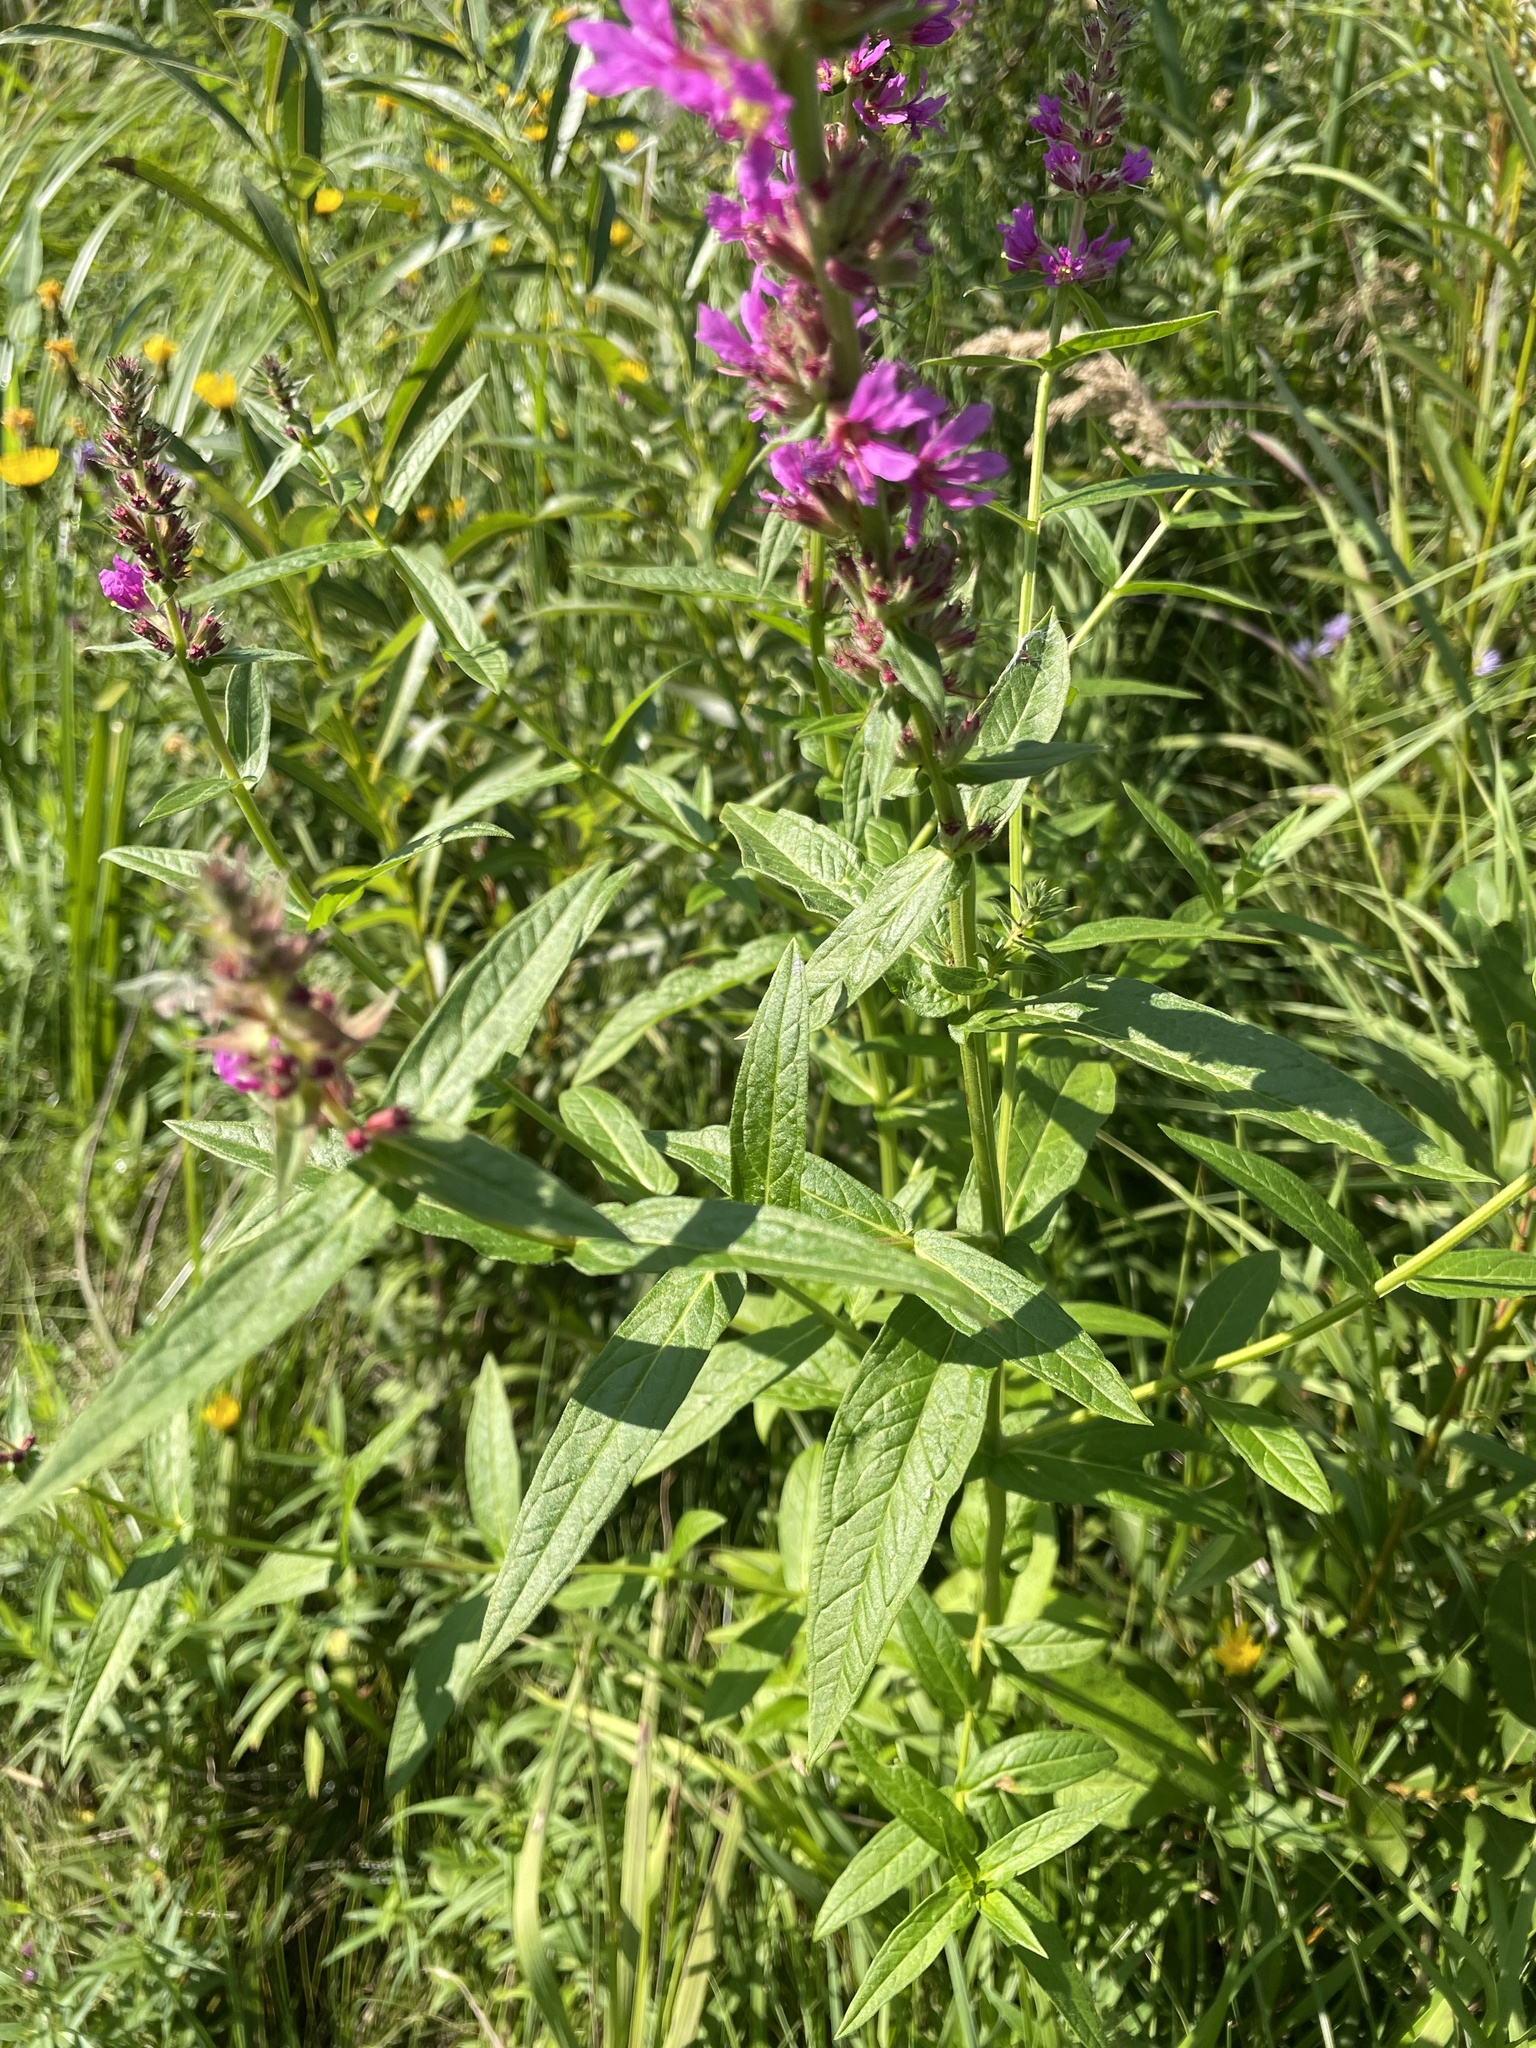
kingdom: Plantae
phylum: Tracheophyta
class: Magnoliopsida
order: Myrtales
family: Lythraceae
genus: Lythrum
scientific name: Lythrum salicaria
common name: Purple loosestrife
